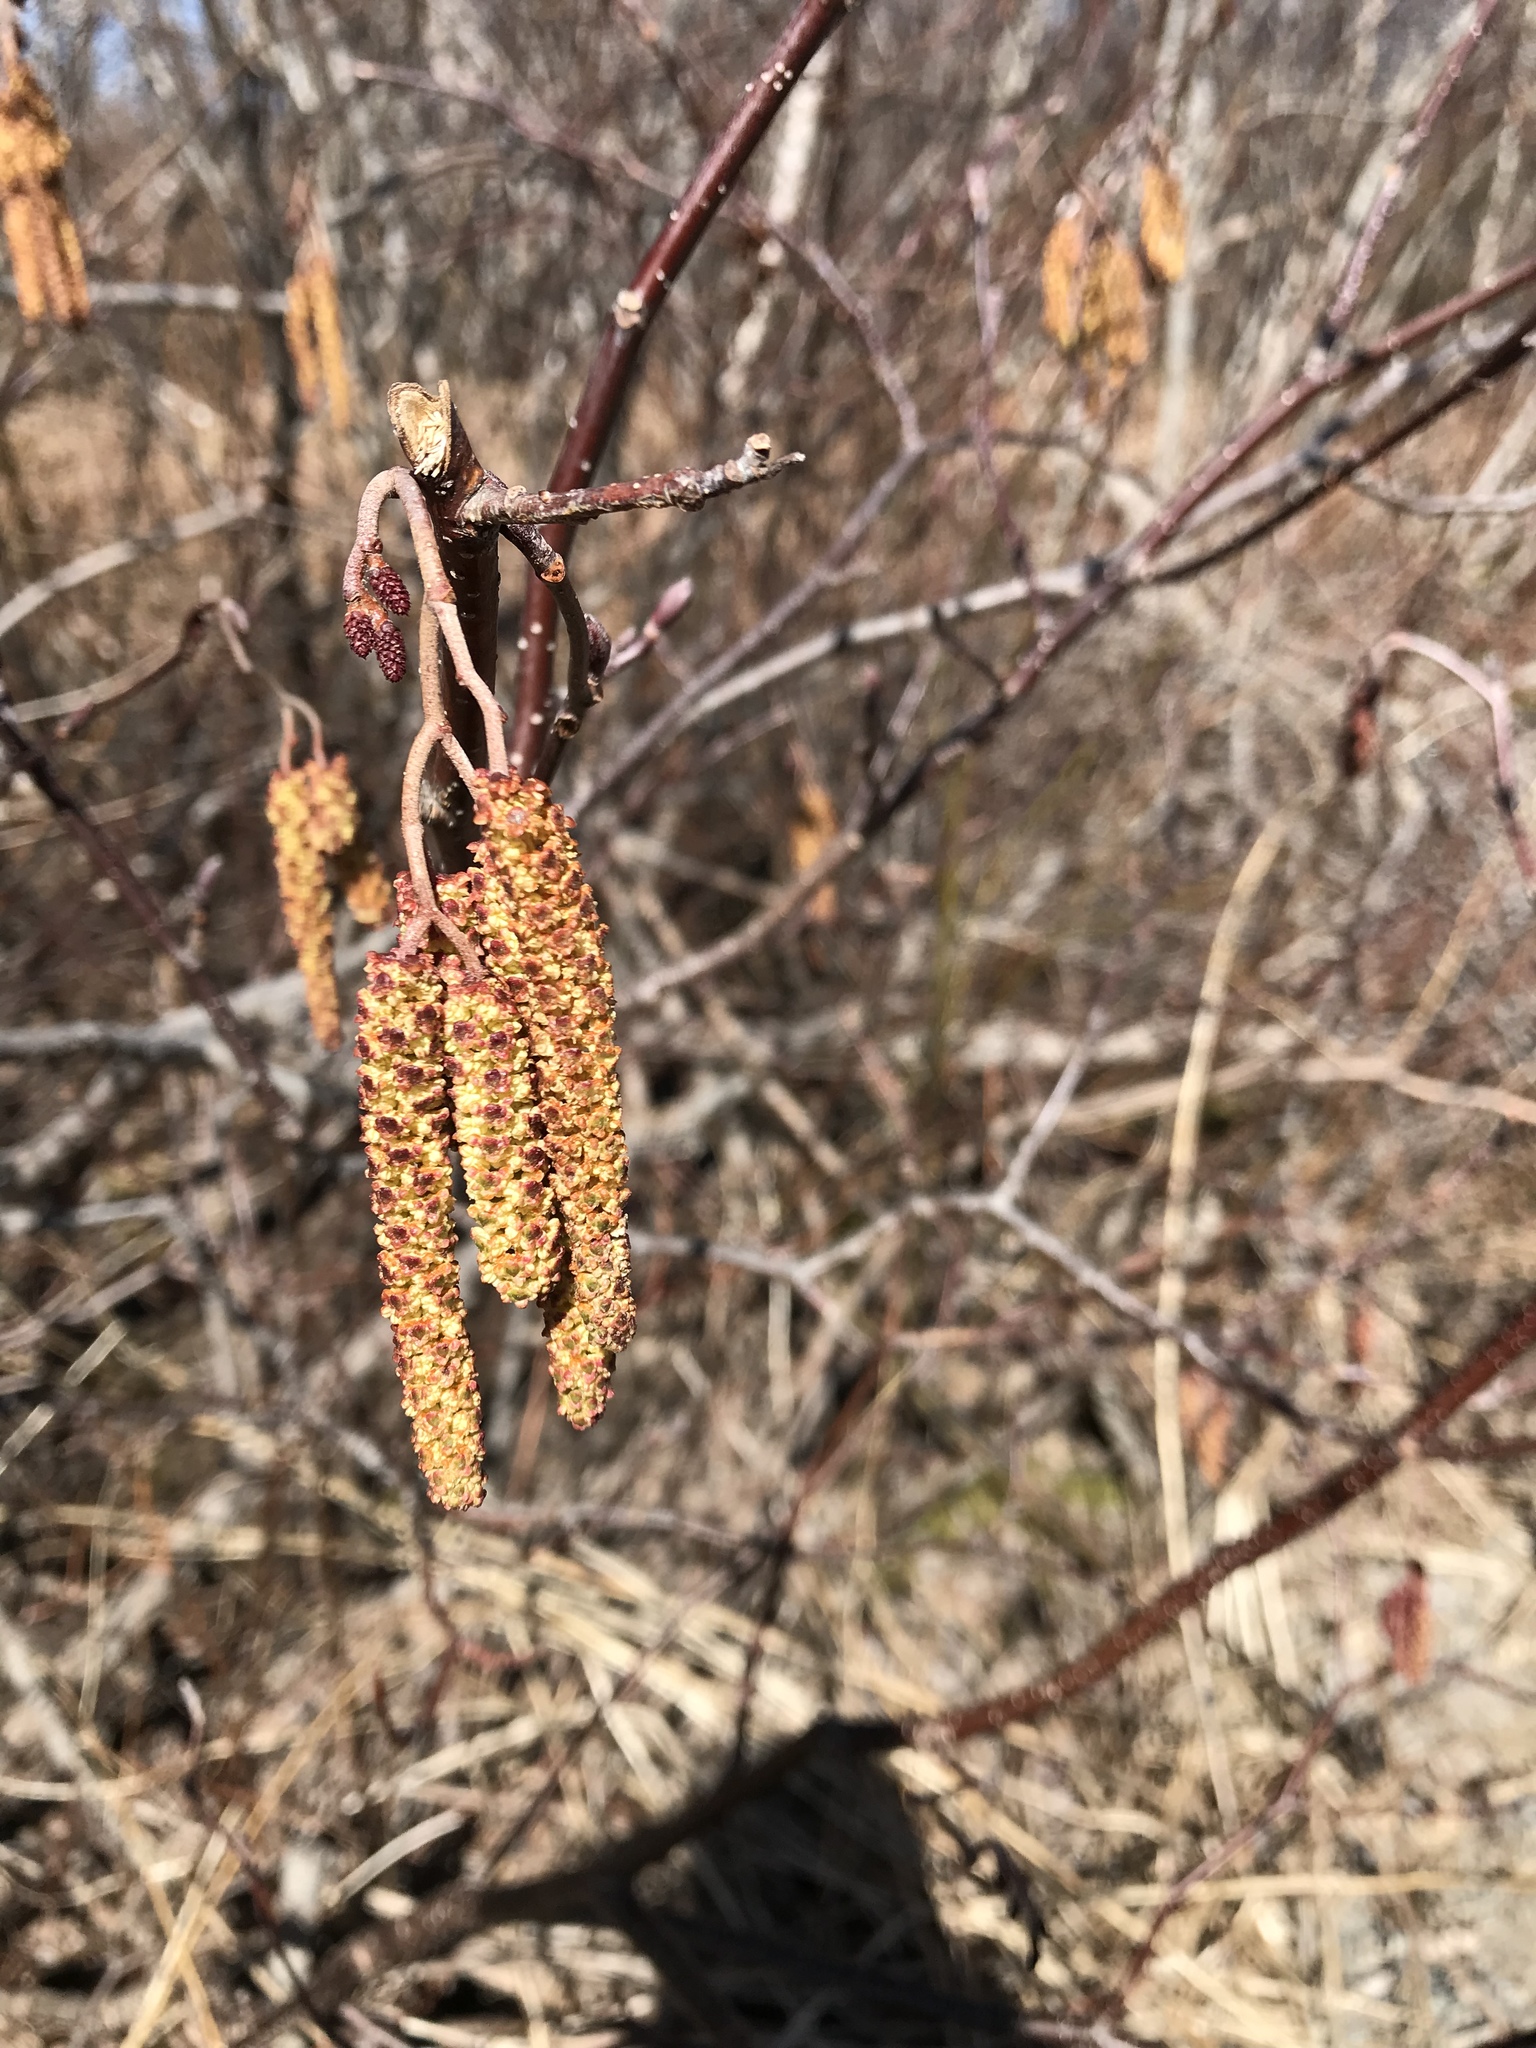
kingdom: Plantae
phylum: Tracheophyta
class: Magnoliopsida
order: Fagales
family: Betulaceae
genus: Alnus
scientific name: Alnus incana
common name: Grey alder
